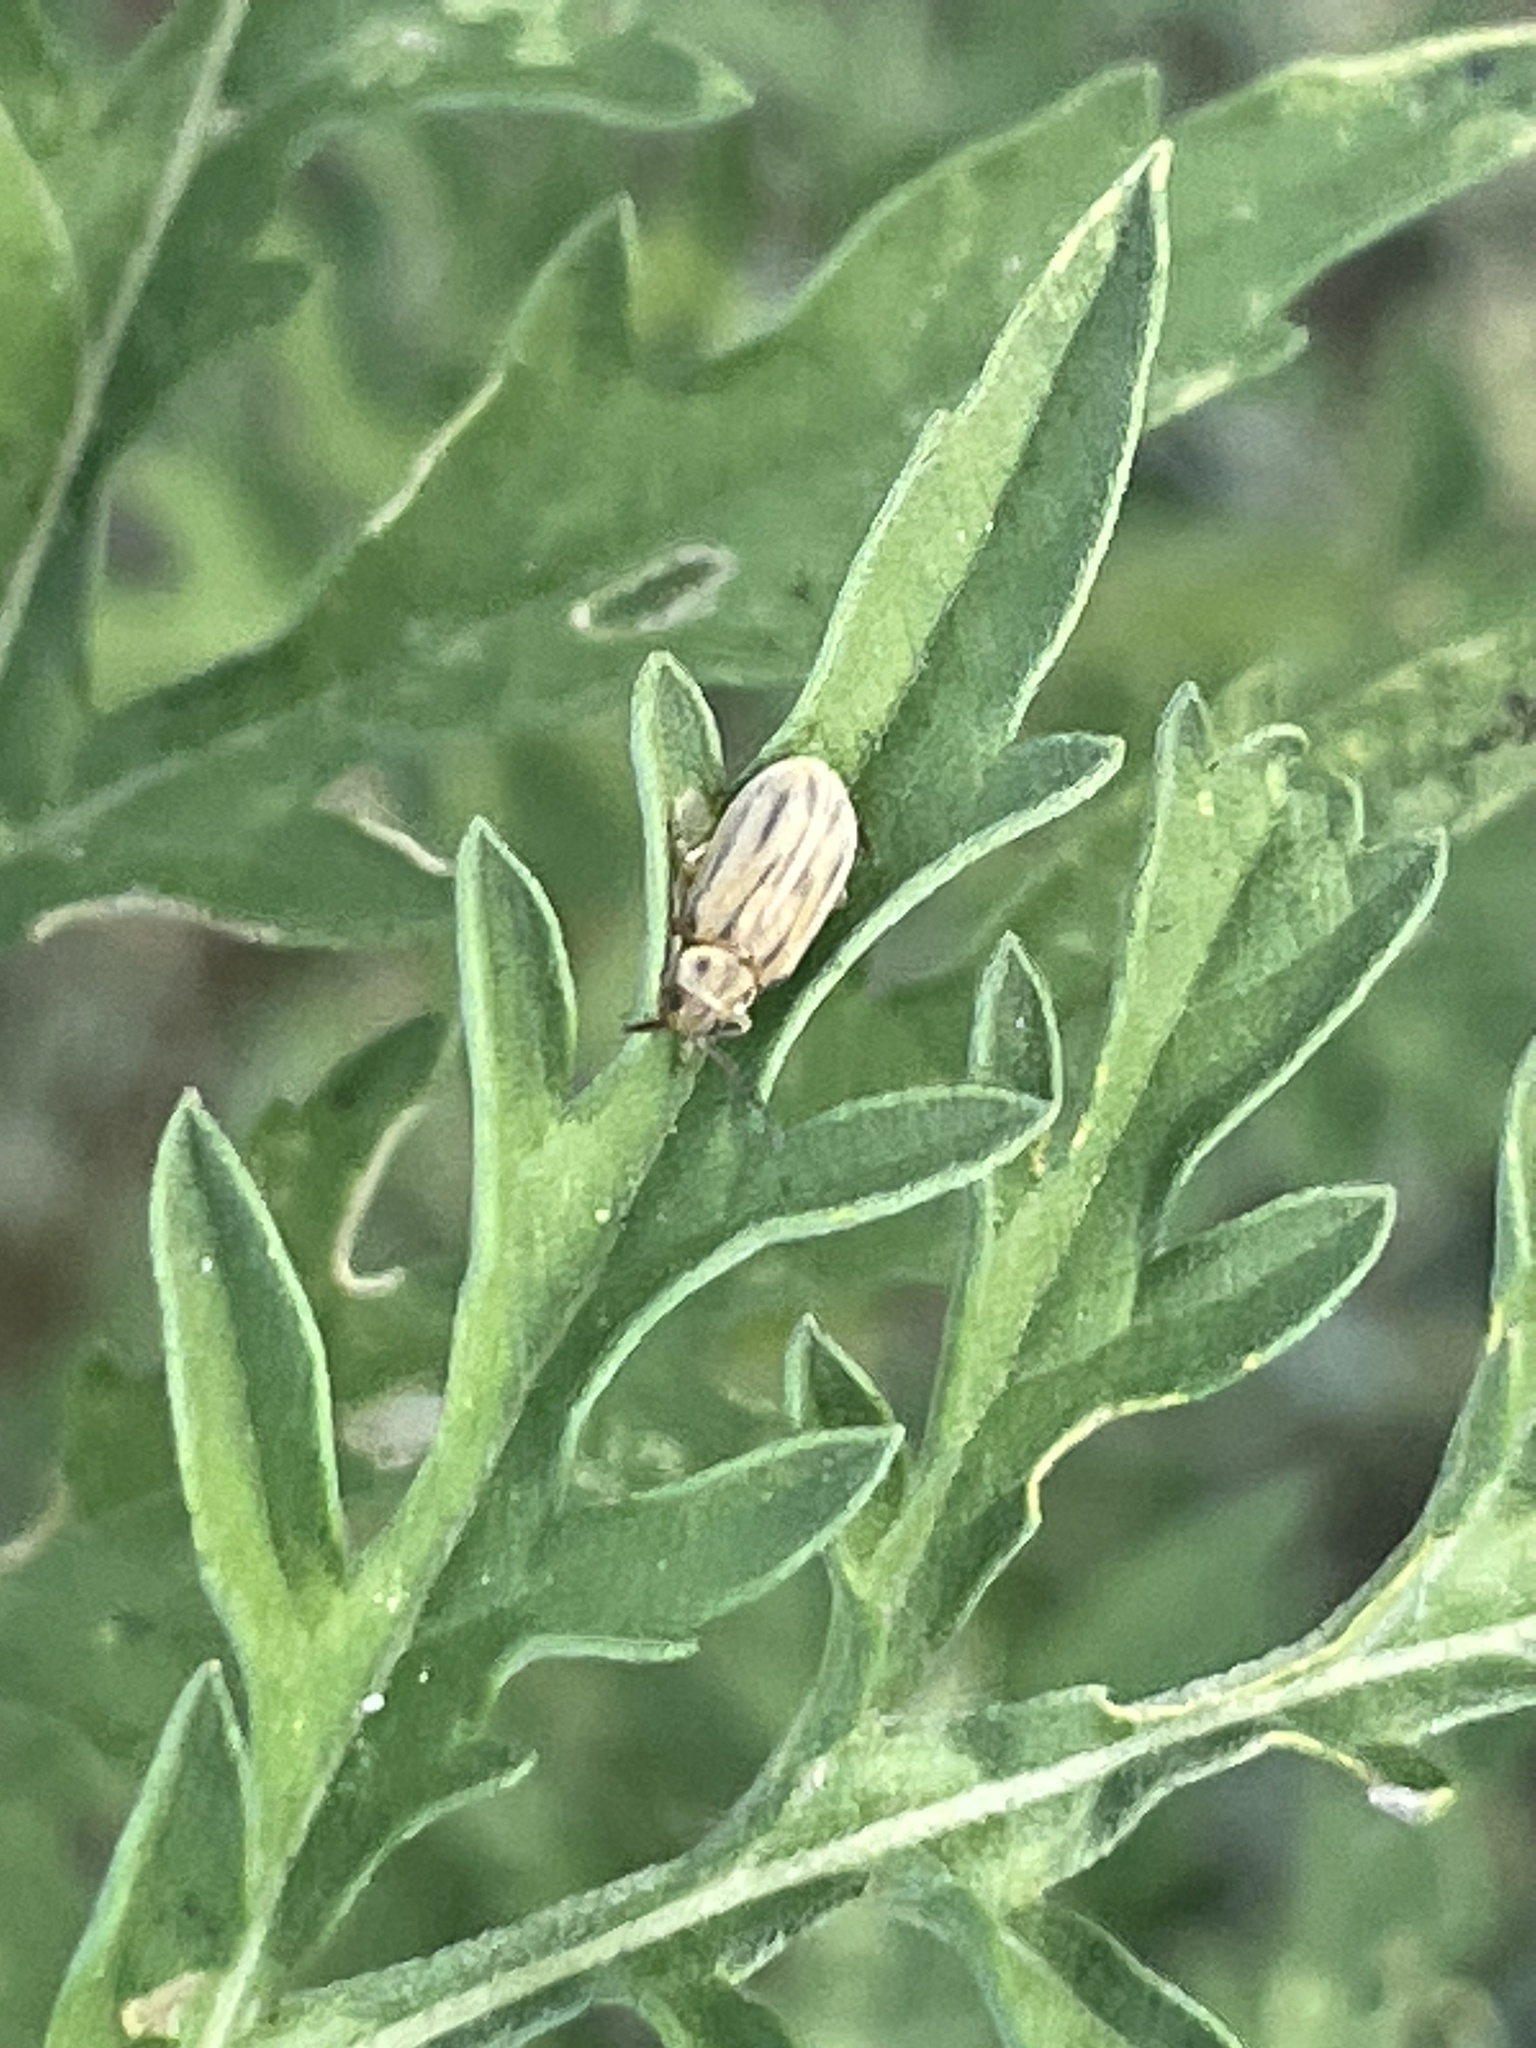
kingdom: Animalia
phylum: Arthropoda
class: Insecta
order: Coleoptera
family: Chrysomelidae
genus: Ophraella
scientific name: Ophraella communa
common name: Ragweed leaf beetle
